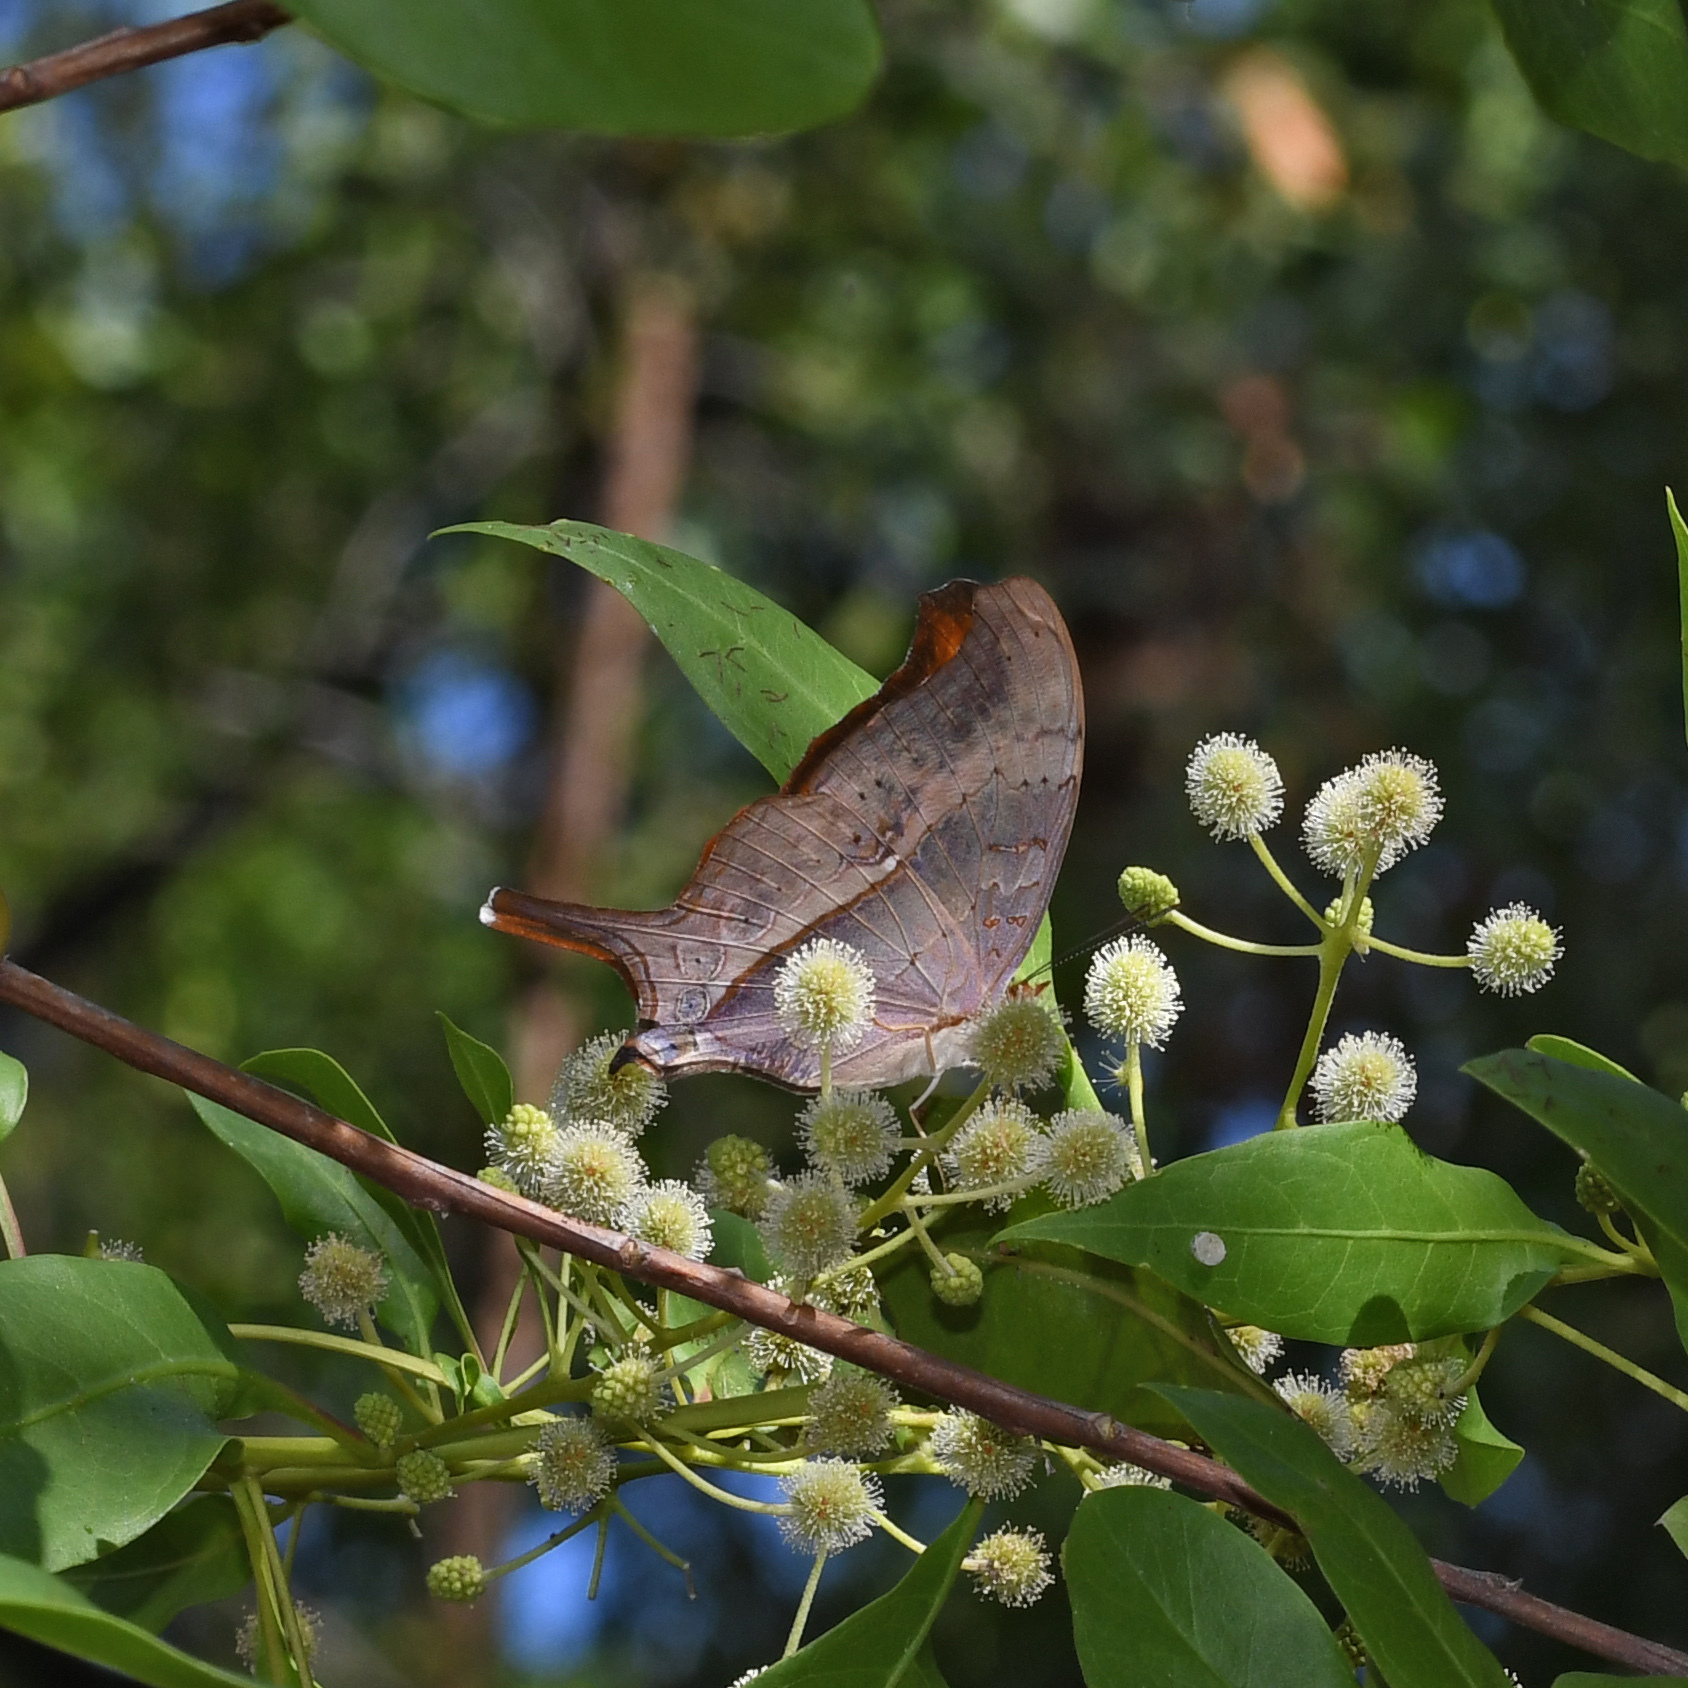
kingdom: Animalia
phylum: Arthropoda
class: Insecta
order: Lepidoptera
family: Nymphalidae
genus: Marpesia
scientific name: Marpesia eleuchea
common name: Antillean daggerwing
